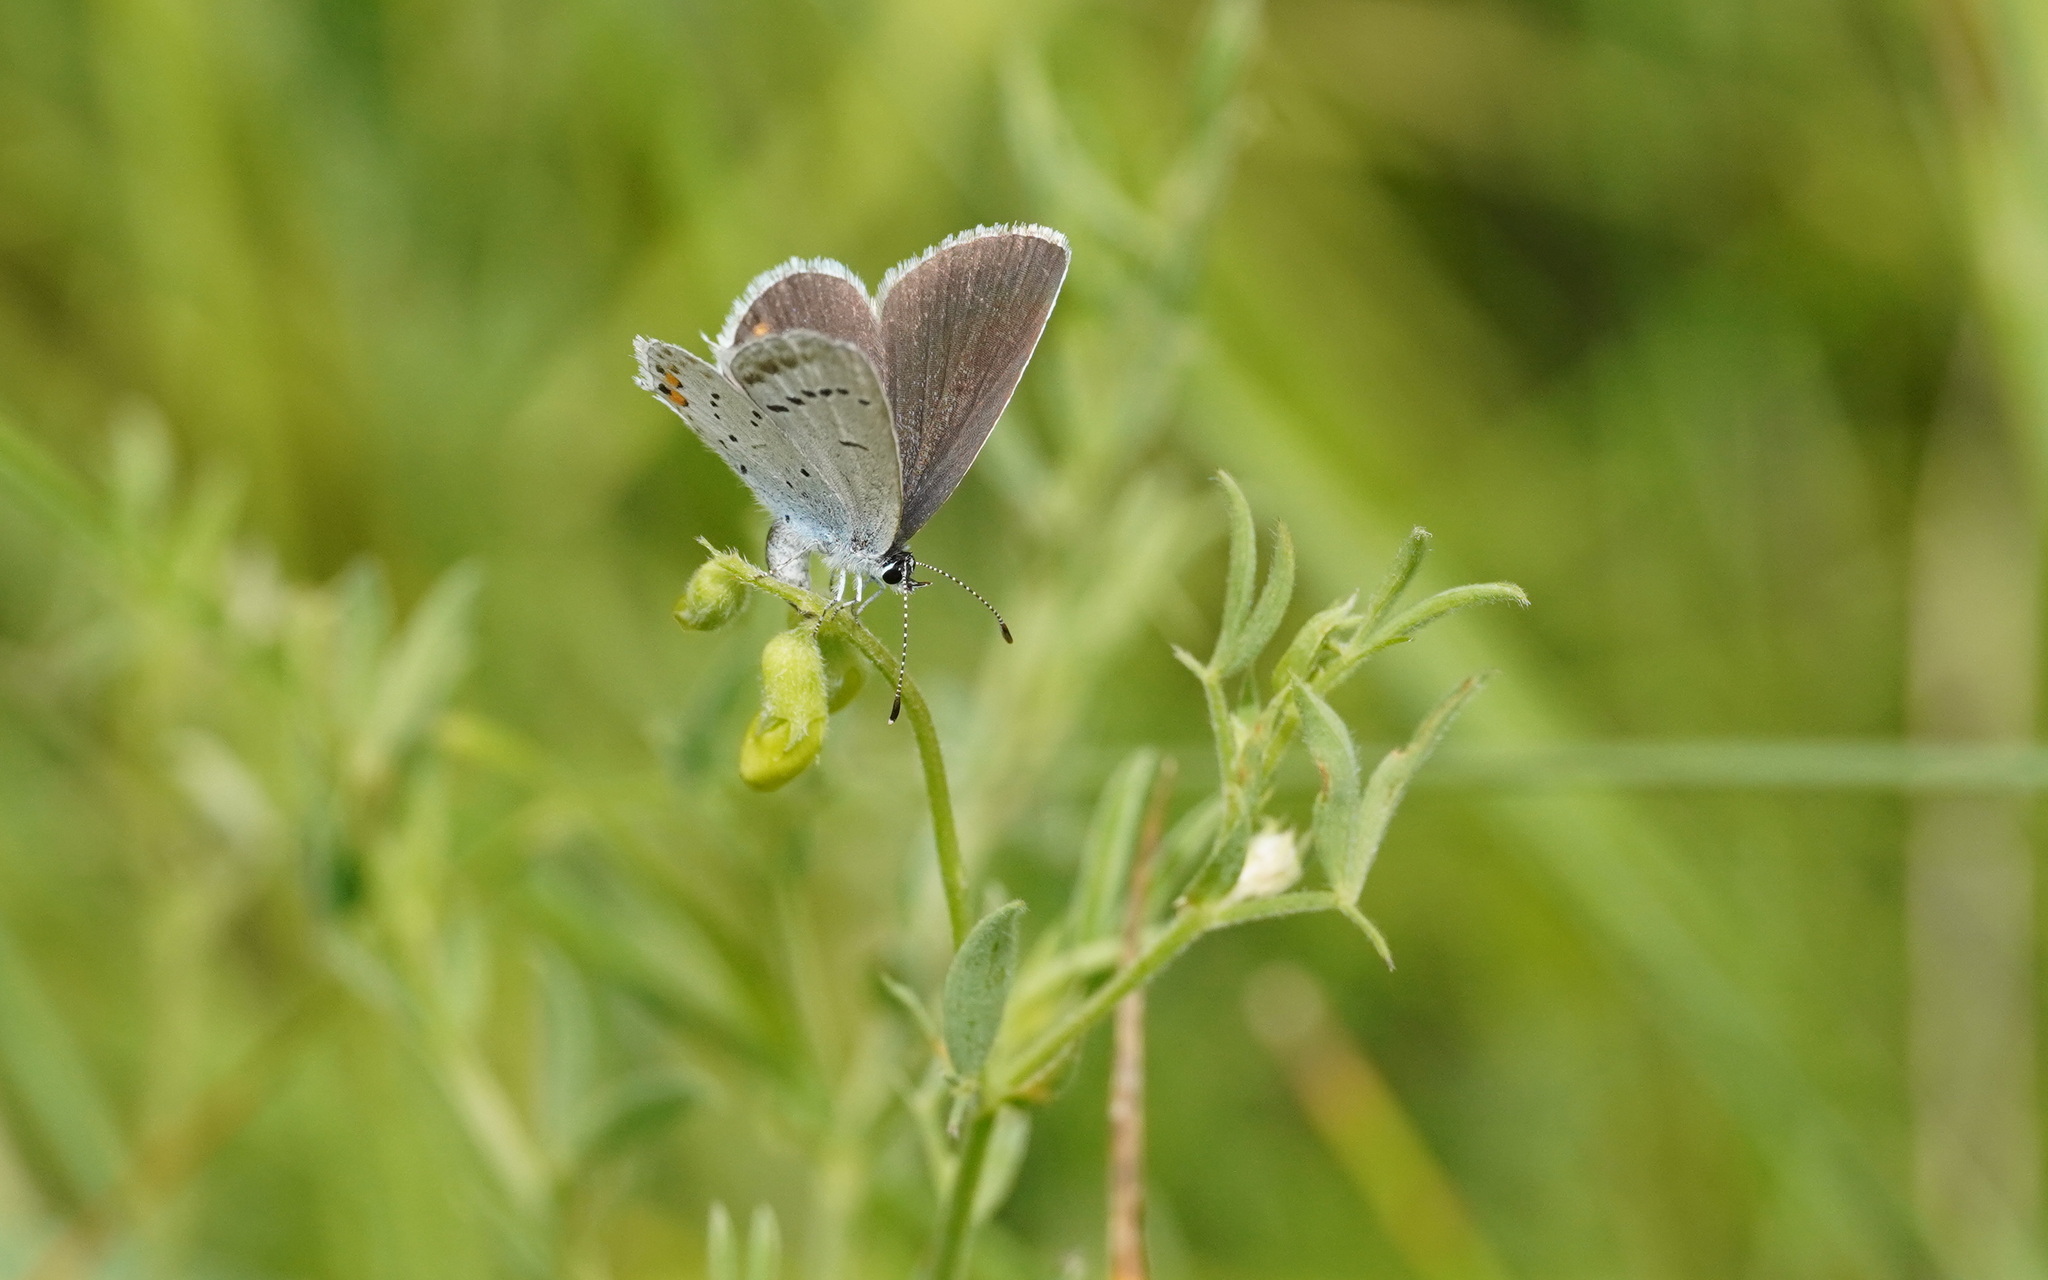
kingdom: Animalia
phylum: Arthropoda
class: Insecta
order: Lepidoptera
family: Lycaenidae
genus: Elkalyce
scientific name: Elkalyce argiades
